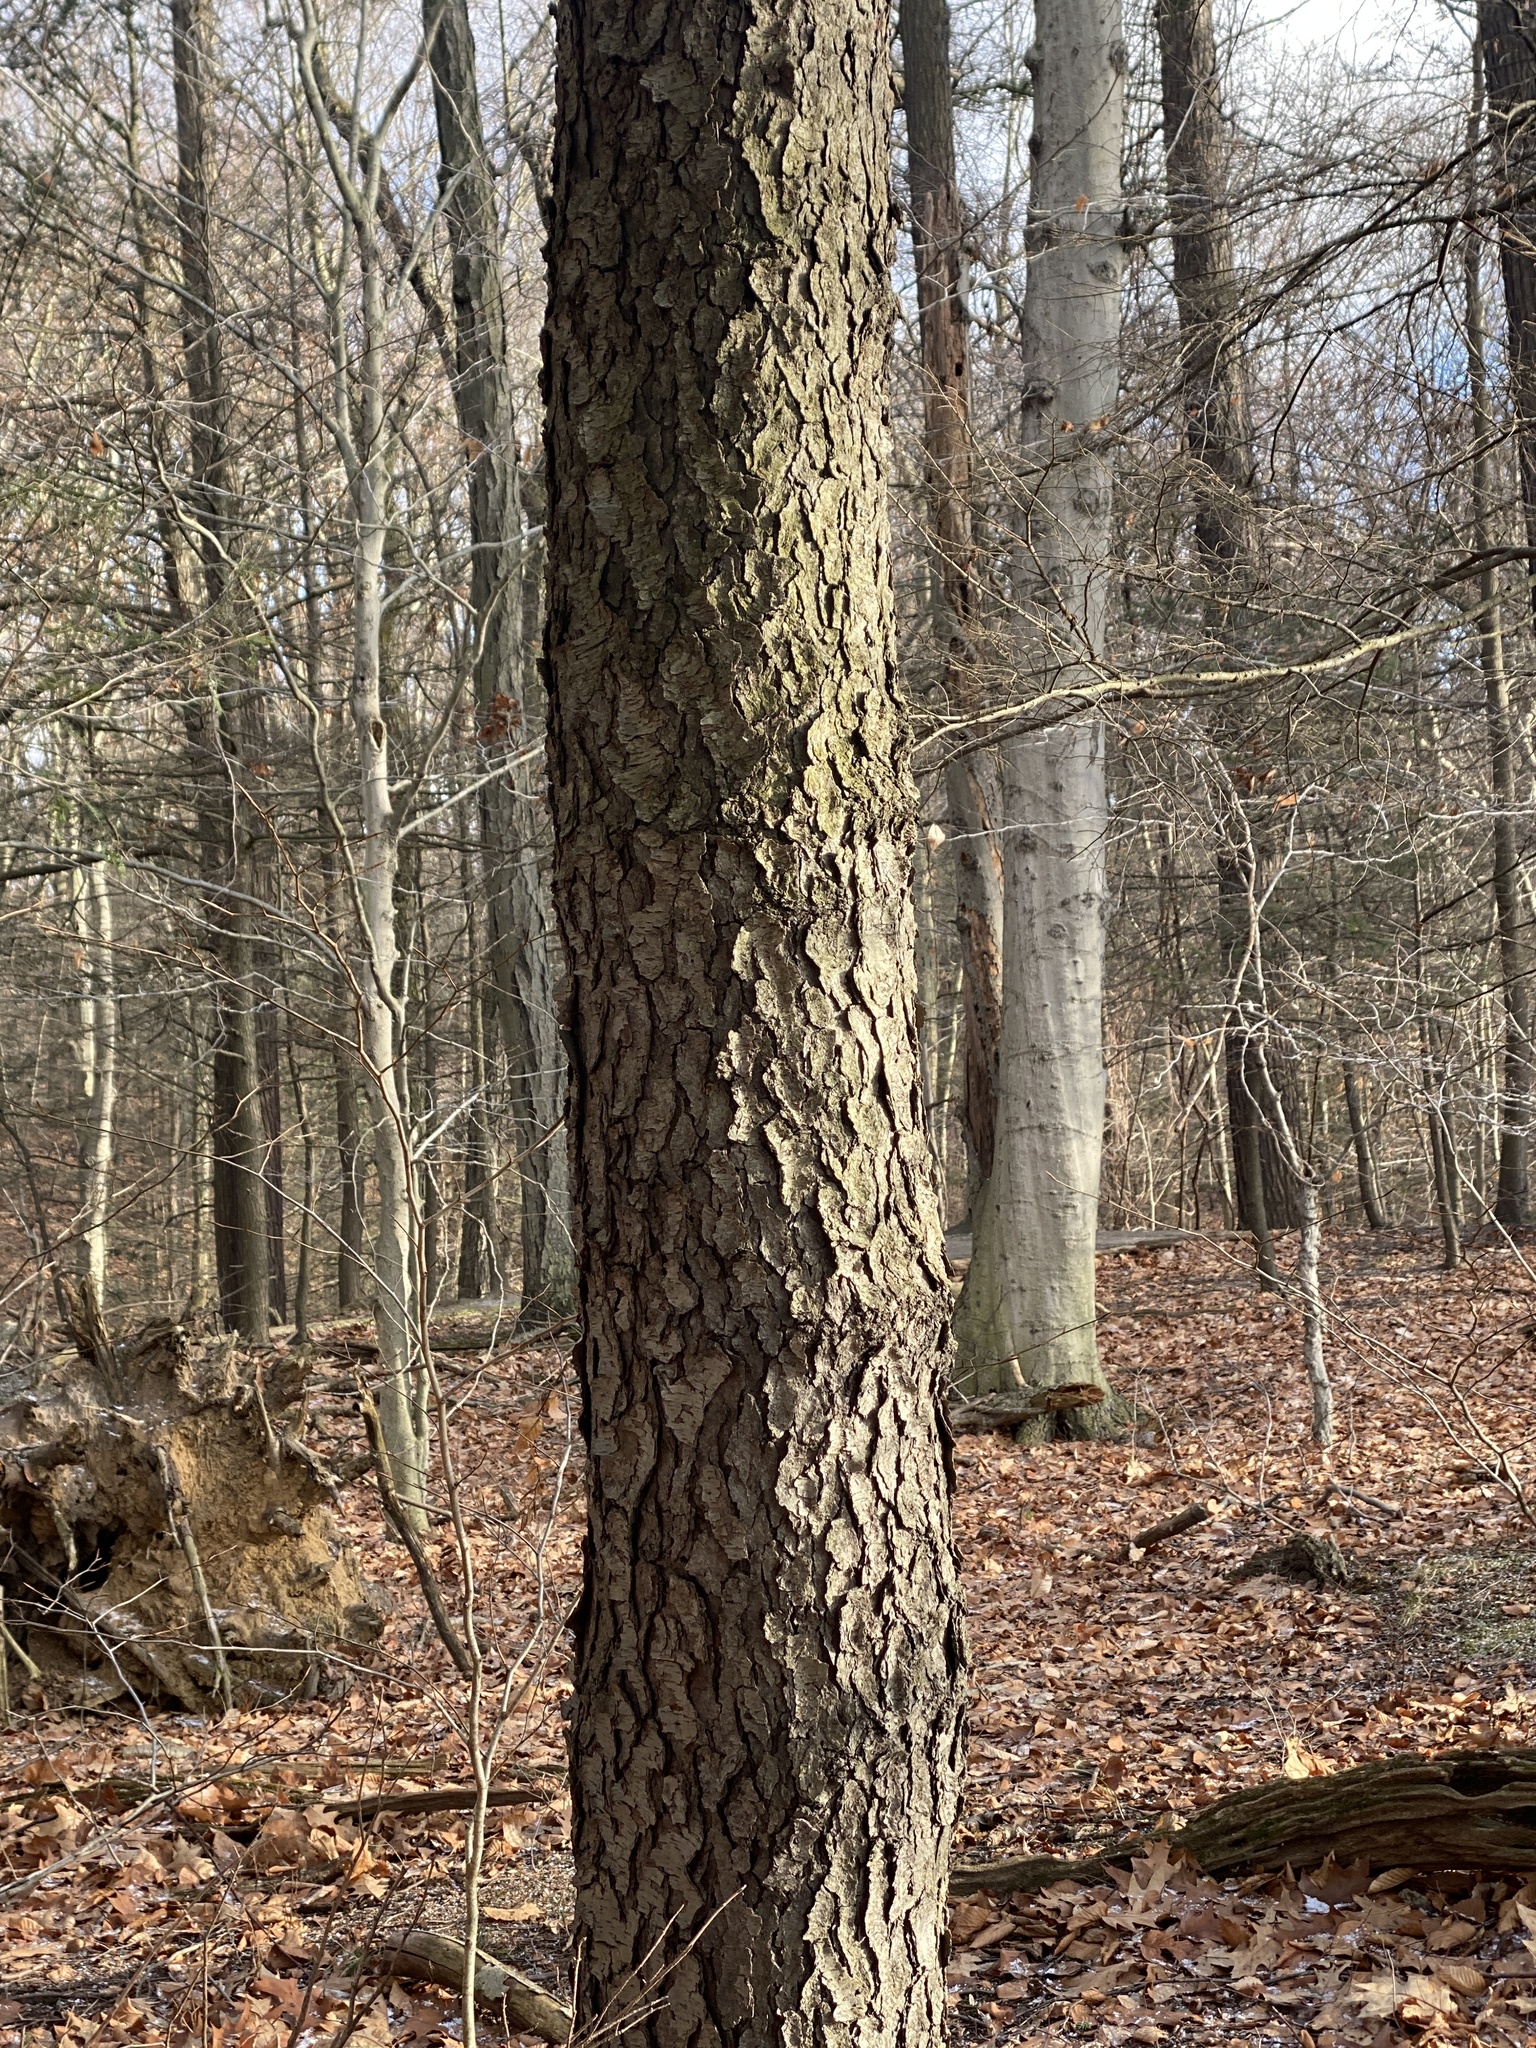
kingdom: Plantae
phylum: Tracheophyta
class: Magnoliopsida
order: Rosales
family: Rosaceae
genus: Prunus
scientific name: Prunus serotina
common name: Black cherry
